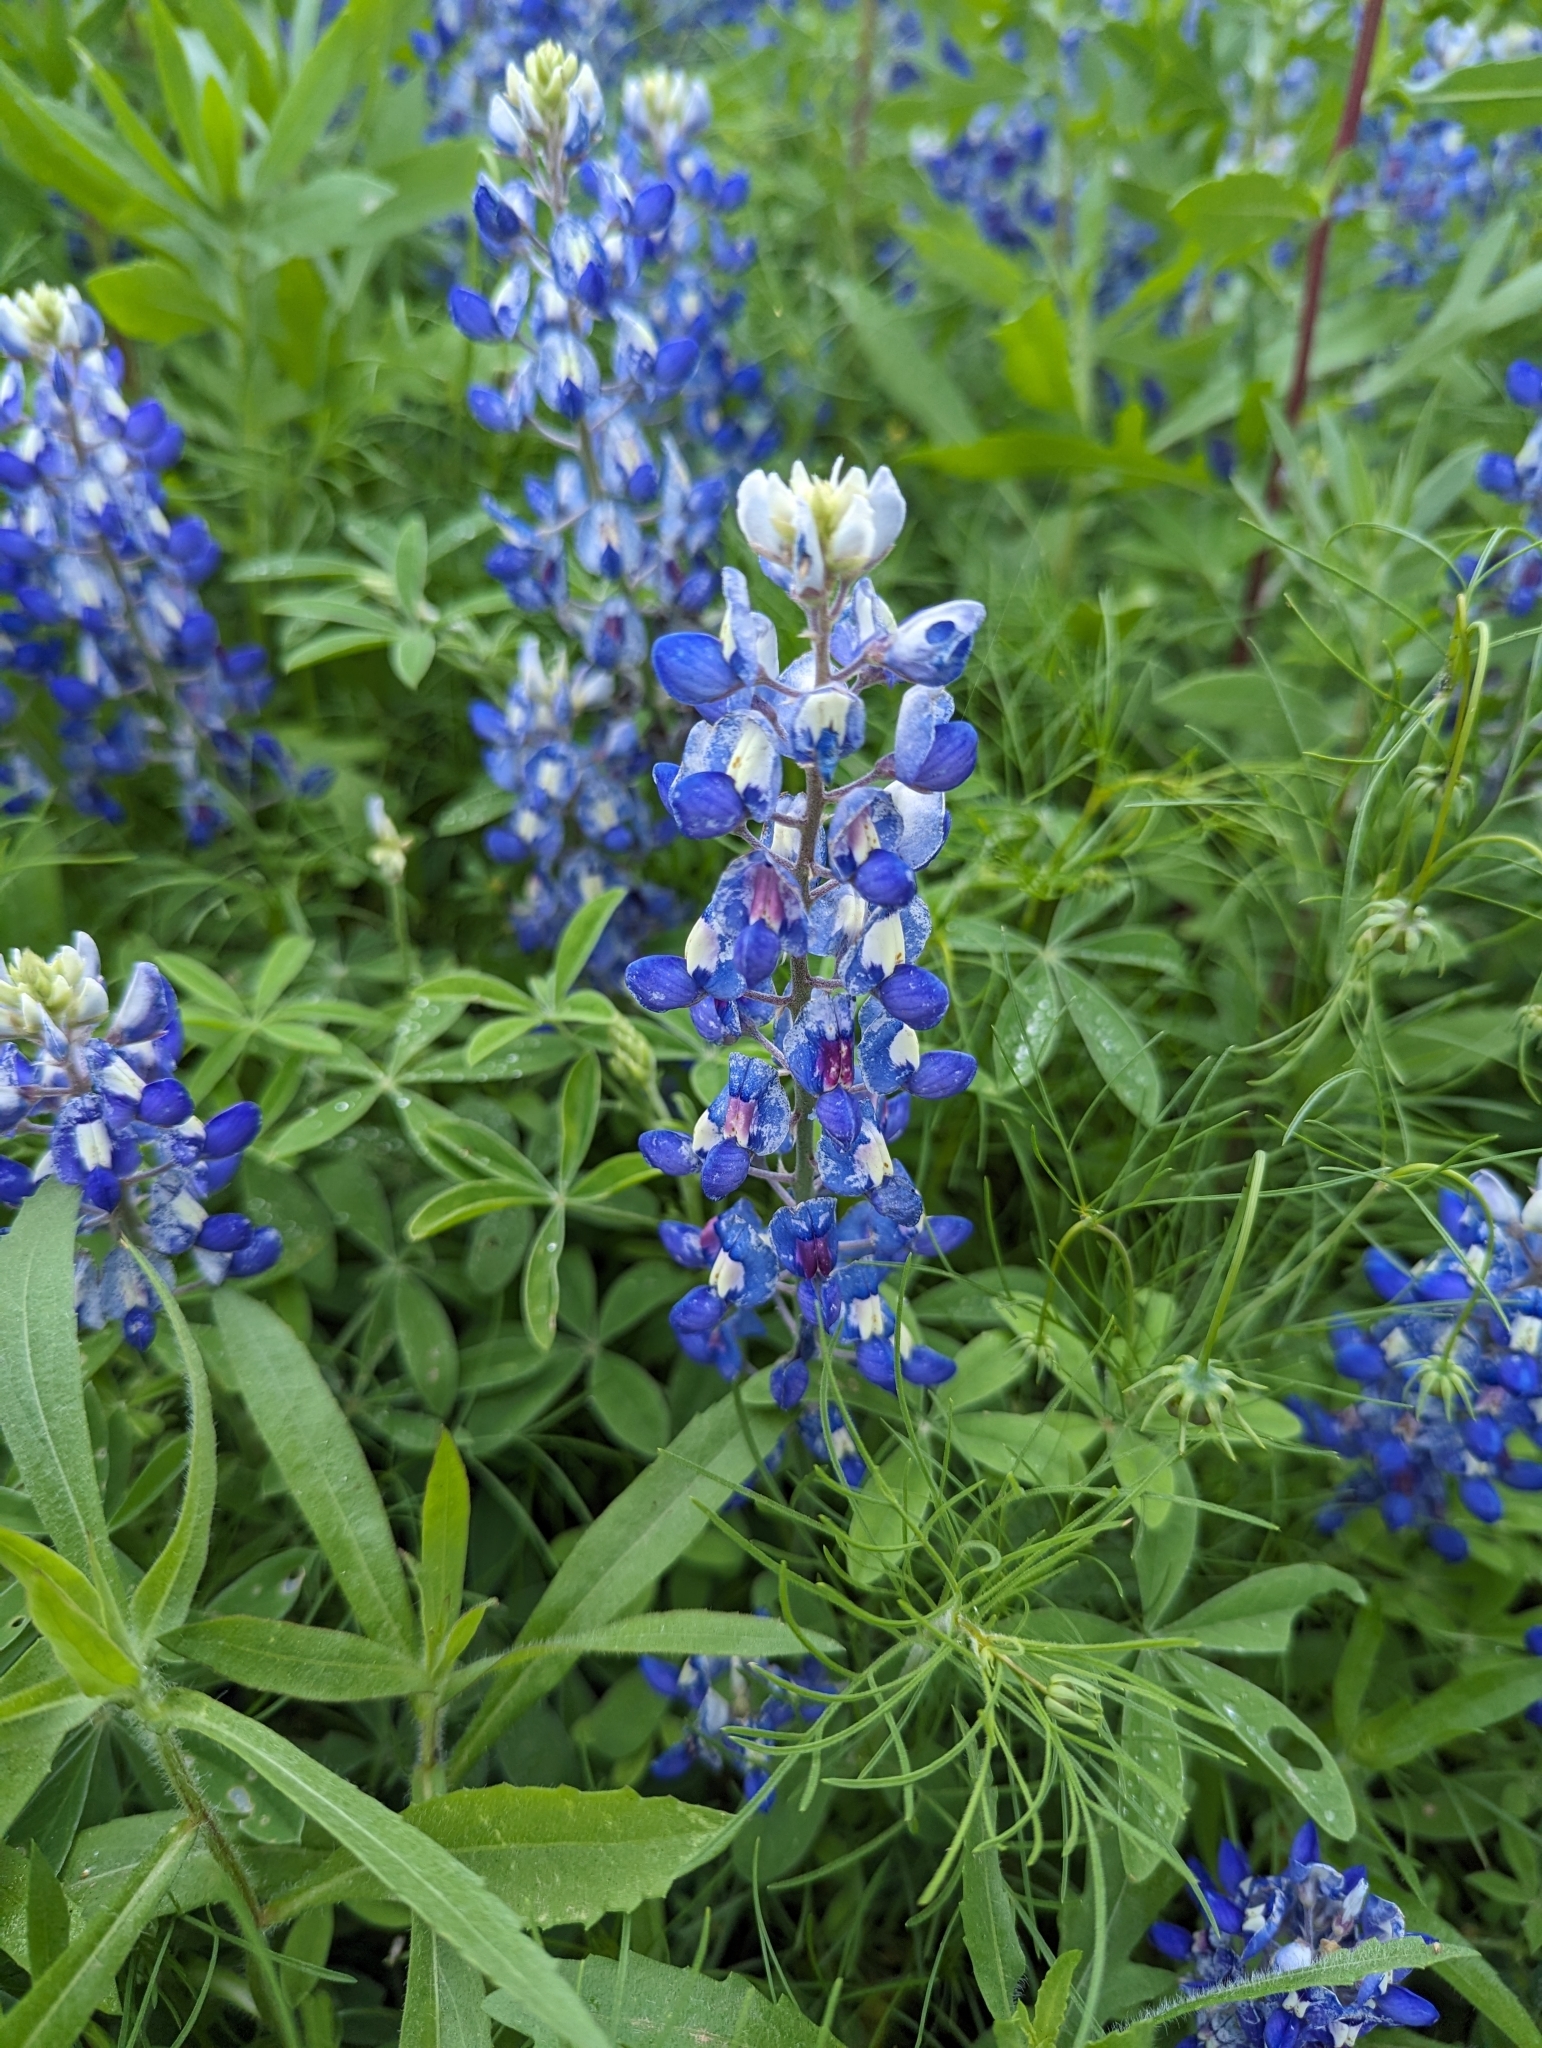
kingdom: Plantae
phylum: Tracheophyta
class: Magnoliopsida
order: Fabales
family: Fabaceae
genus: Lupinus
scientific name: Lupinus texensis
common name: Texas bluebonnet
